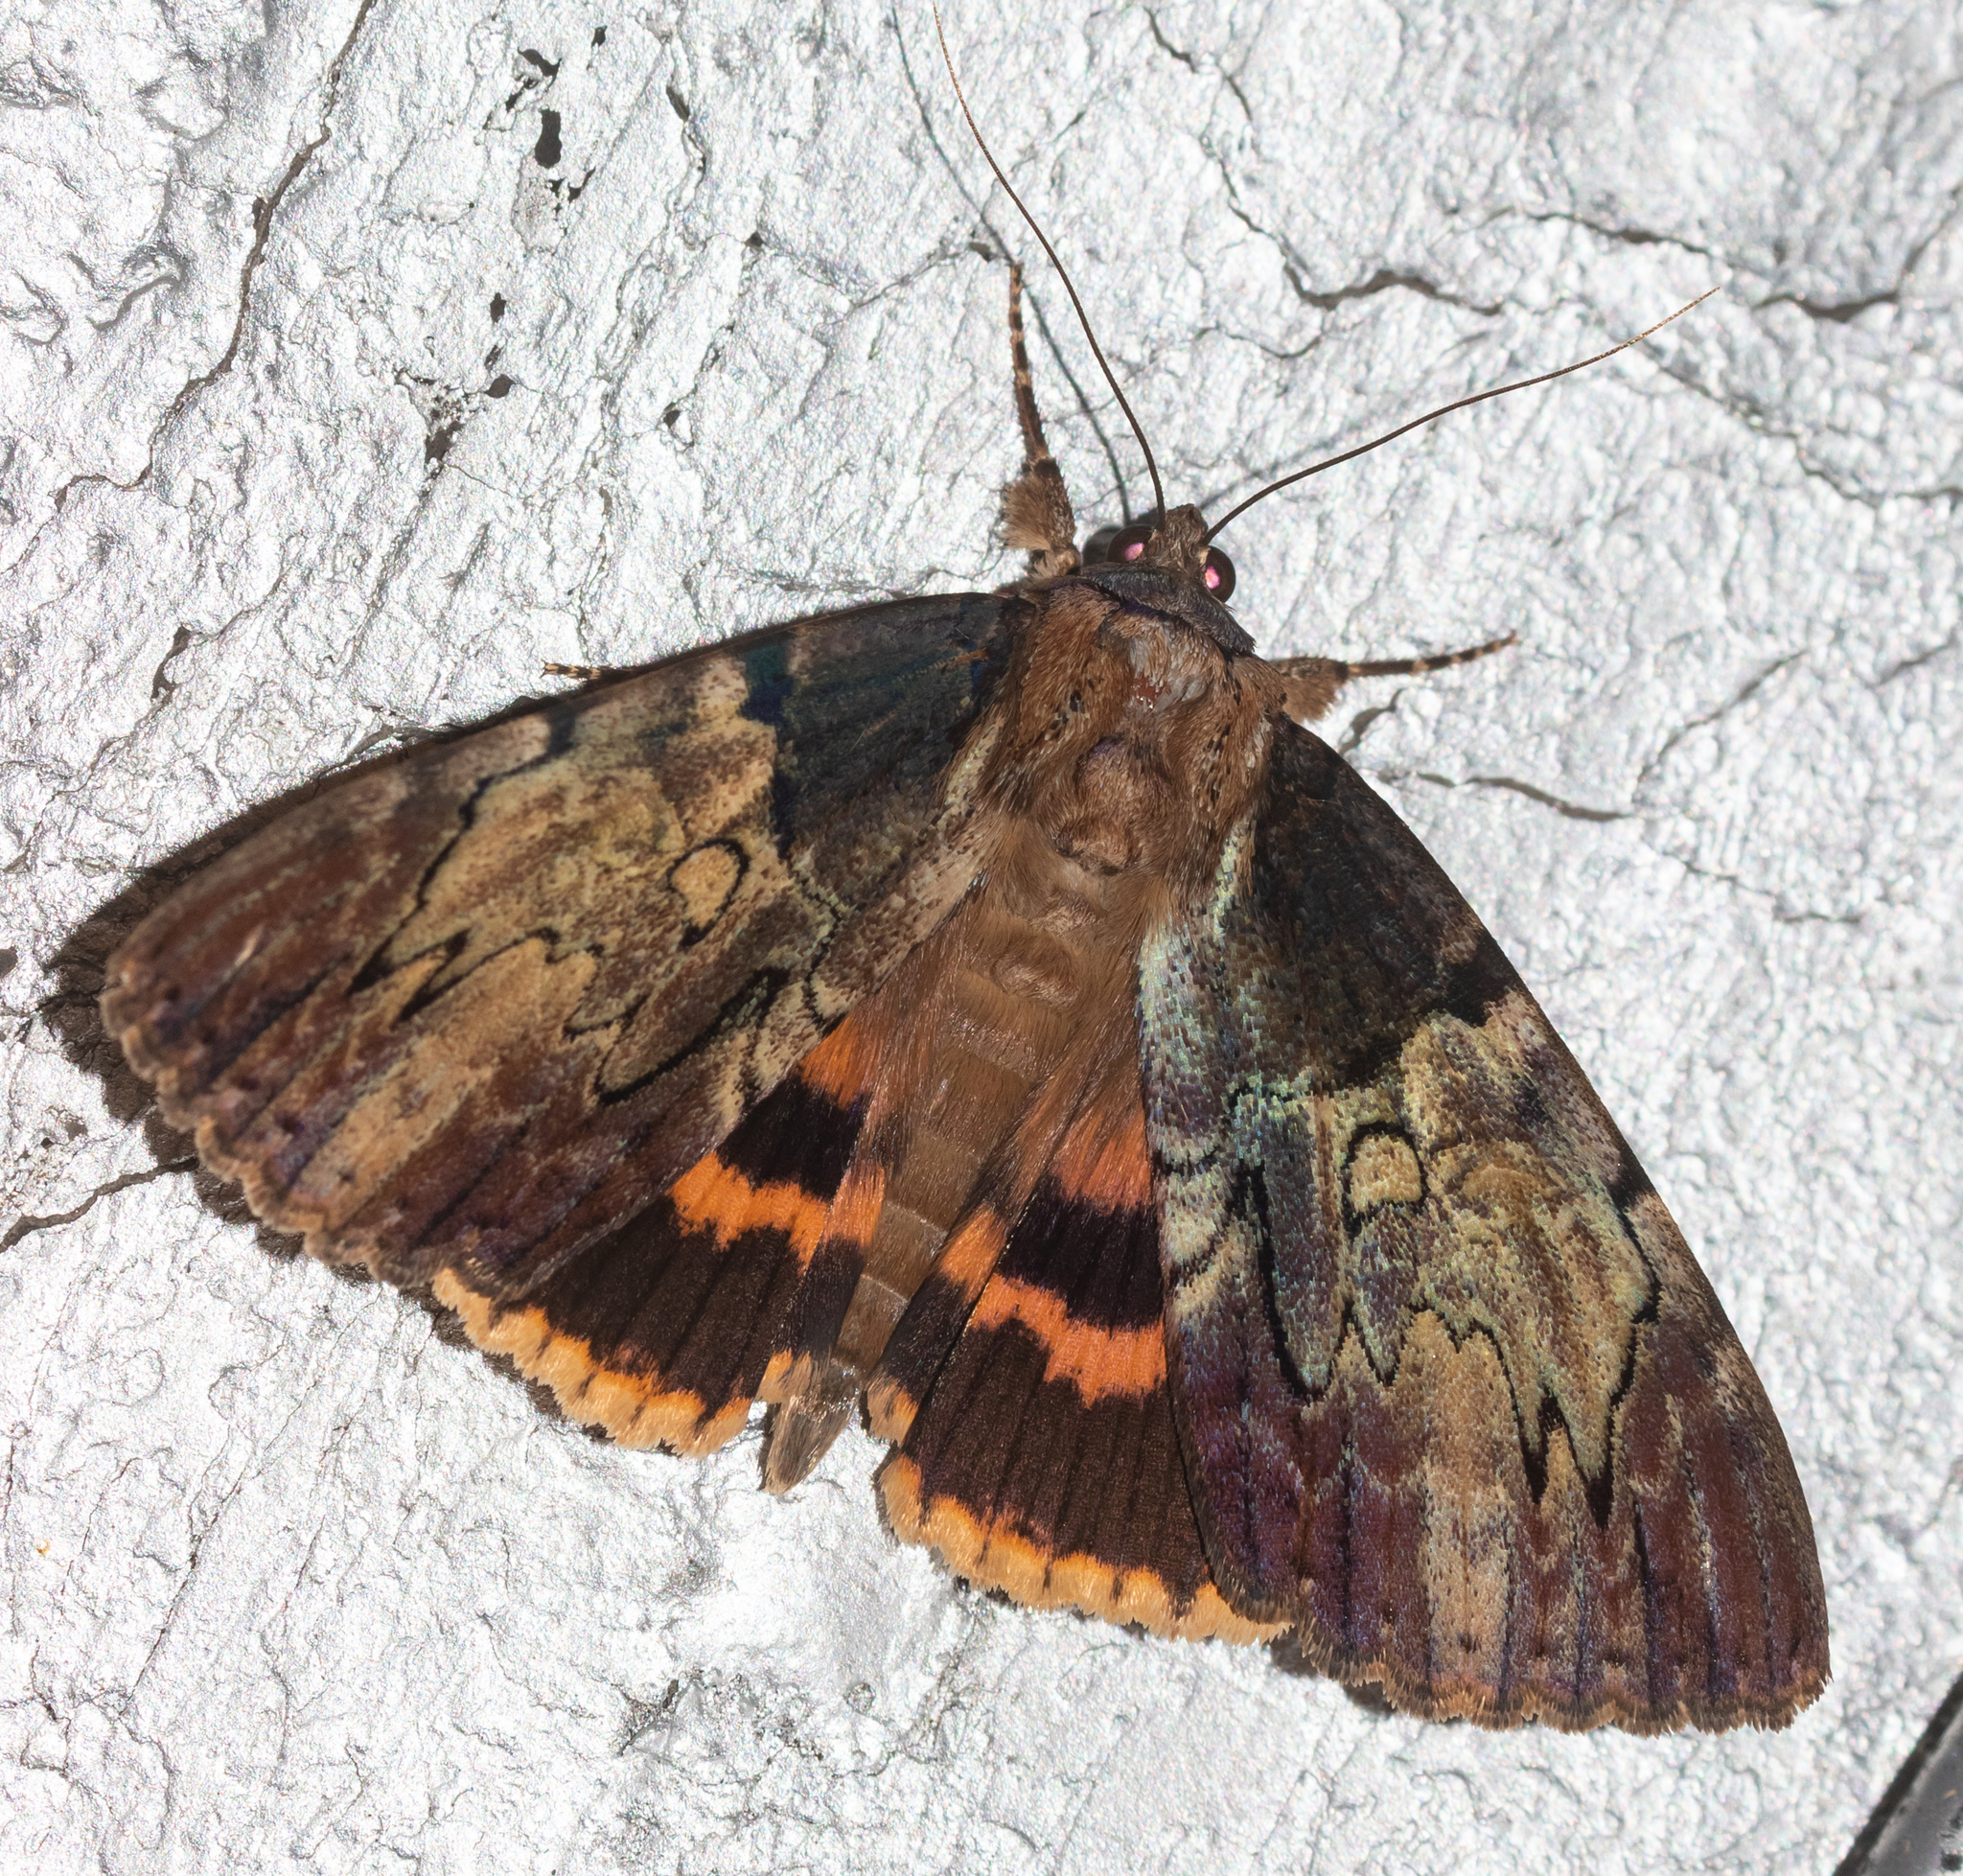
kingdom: Animalia
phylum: Arthropoda
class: Insecta
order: Lepidoptera
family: Erebidae
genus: Catocala
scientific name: Catocala nebulosa
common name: Clouded underwing
